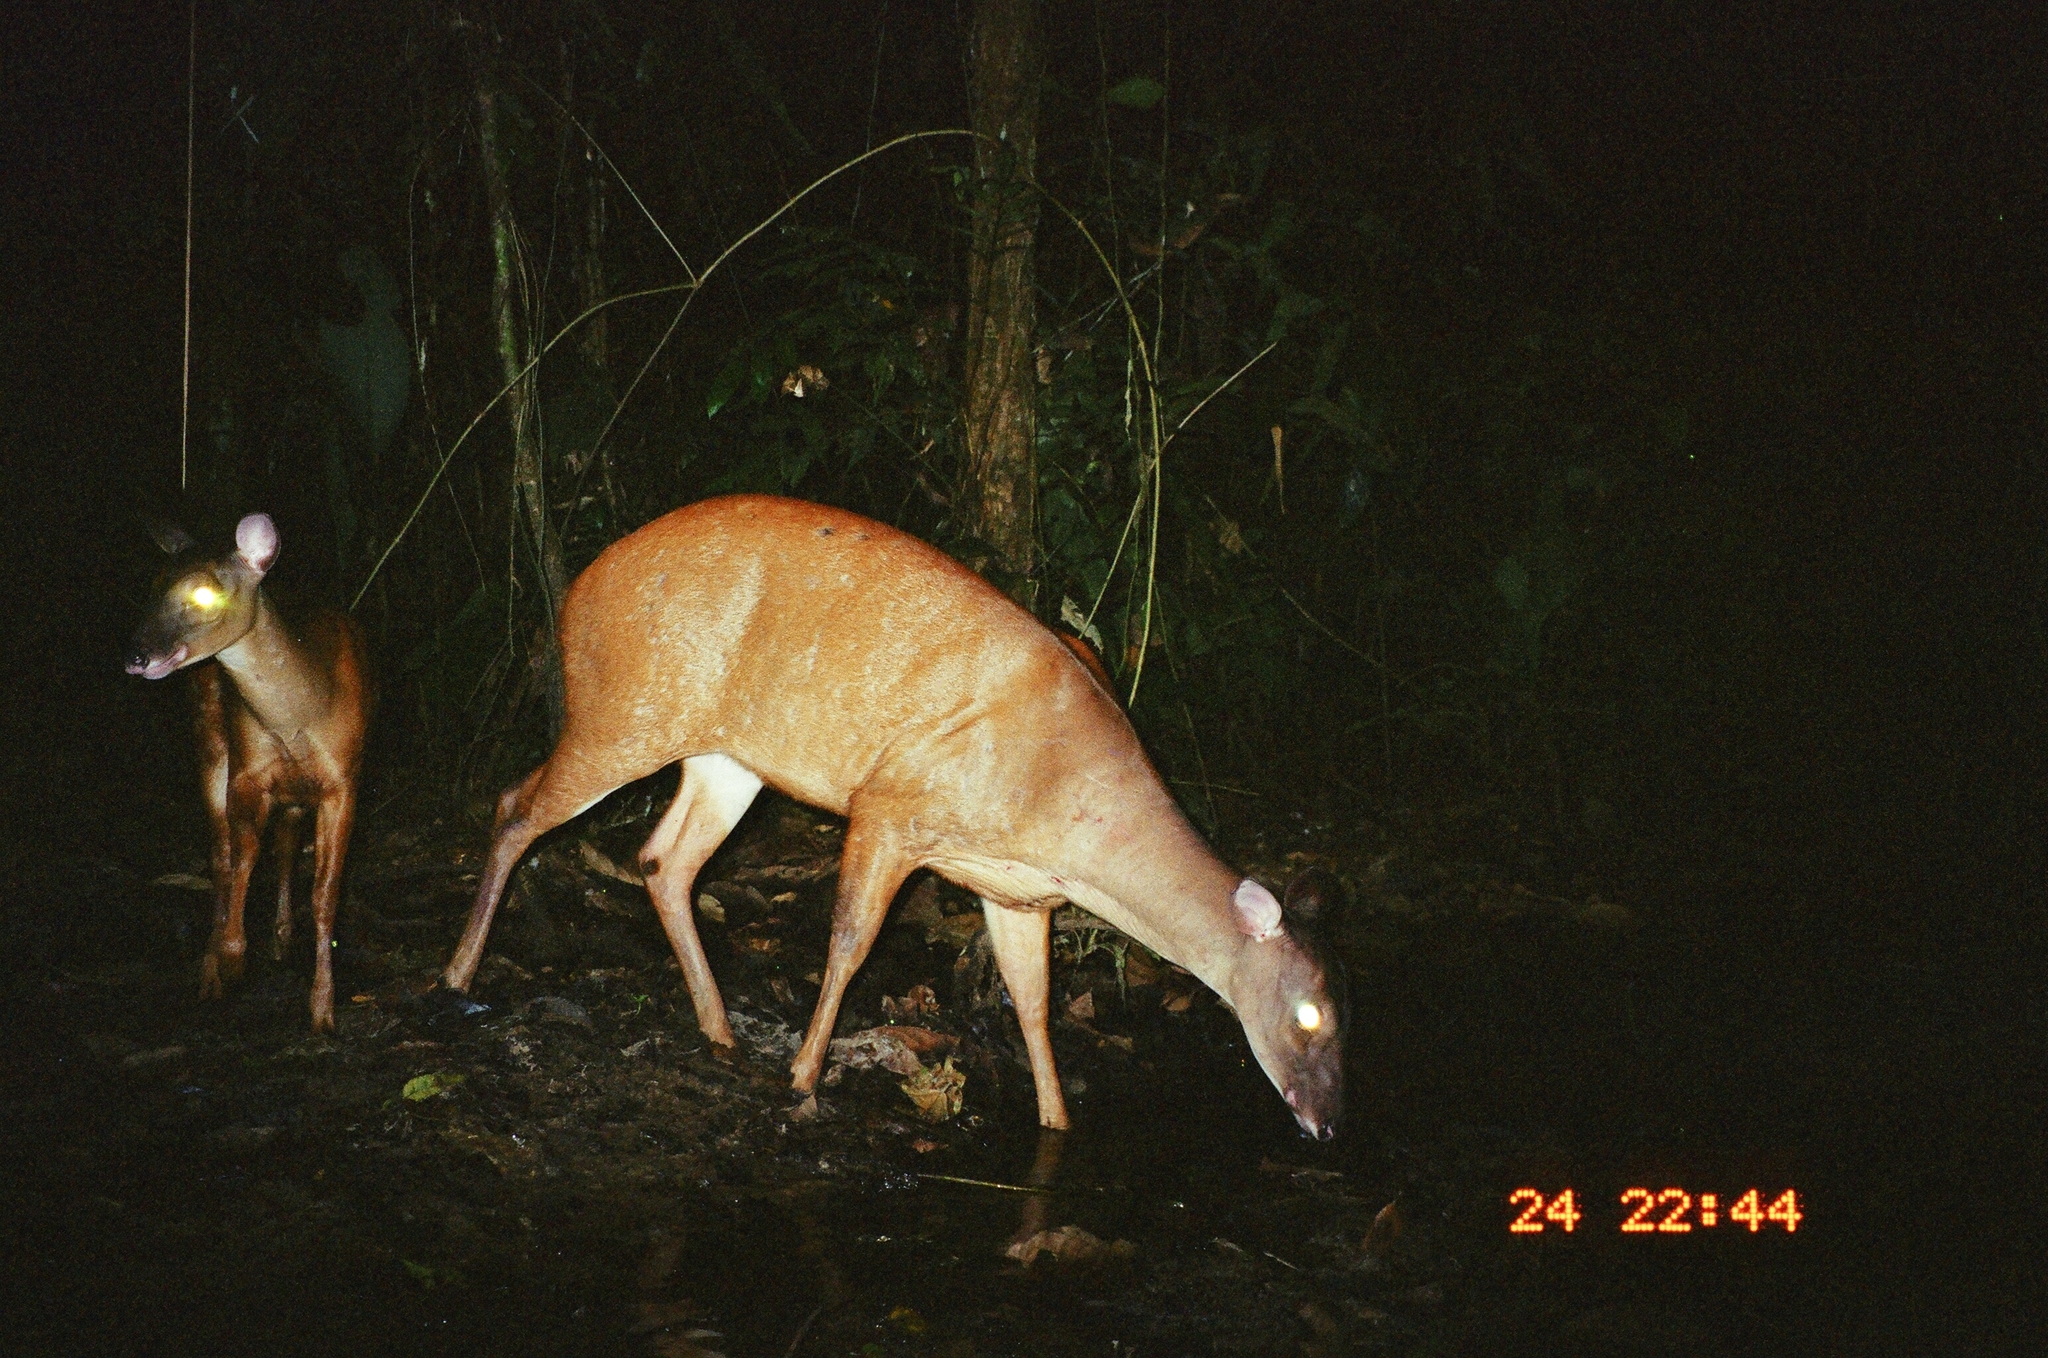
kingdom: Animalia
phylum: Chordata
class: Mammalia
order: Artiodactyla
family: Cervidae
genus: Mazama
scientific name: Mazama americana
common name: Red brocket
